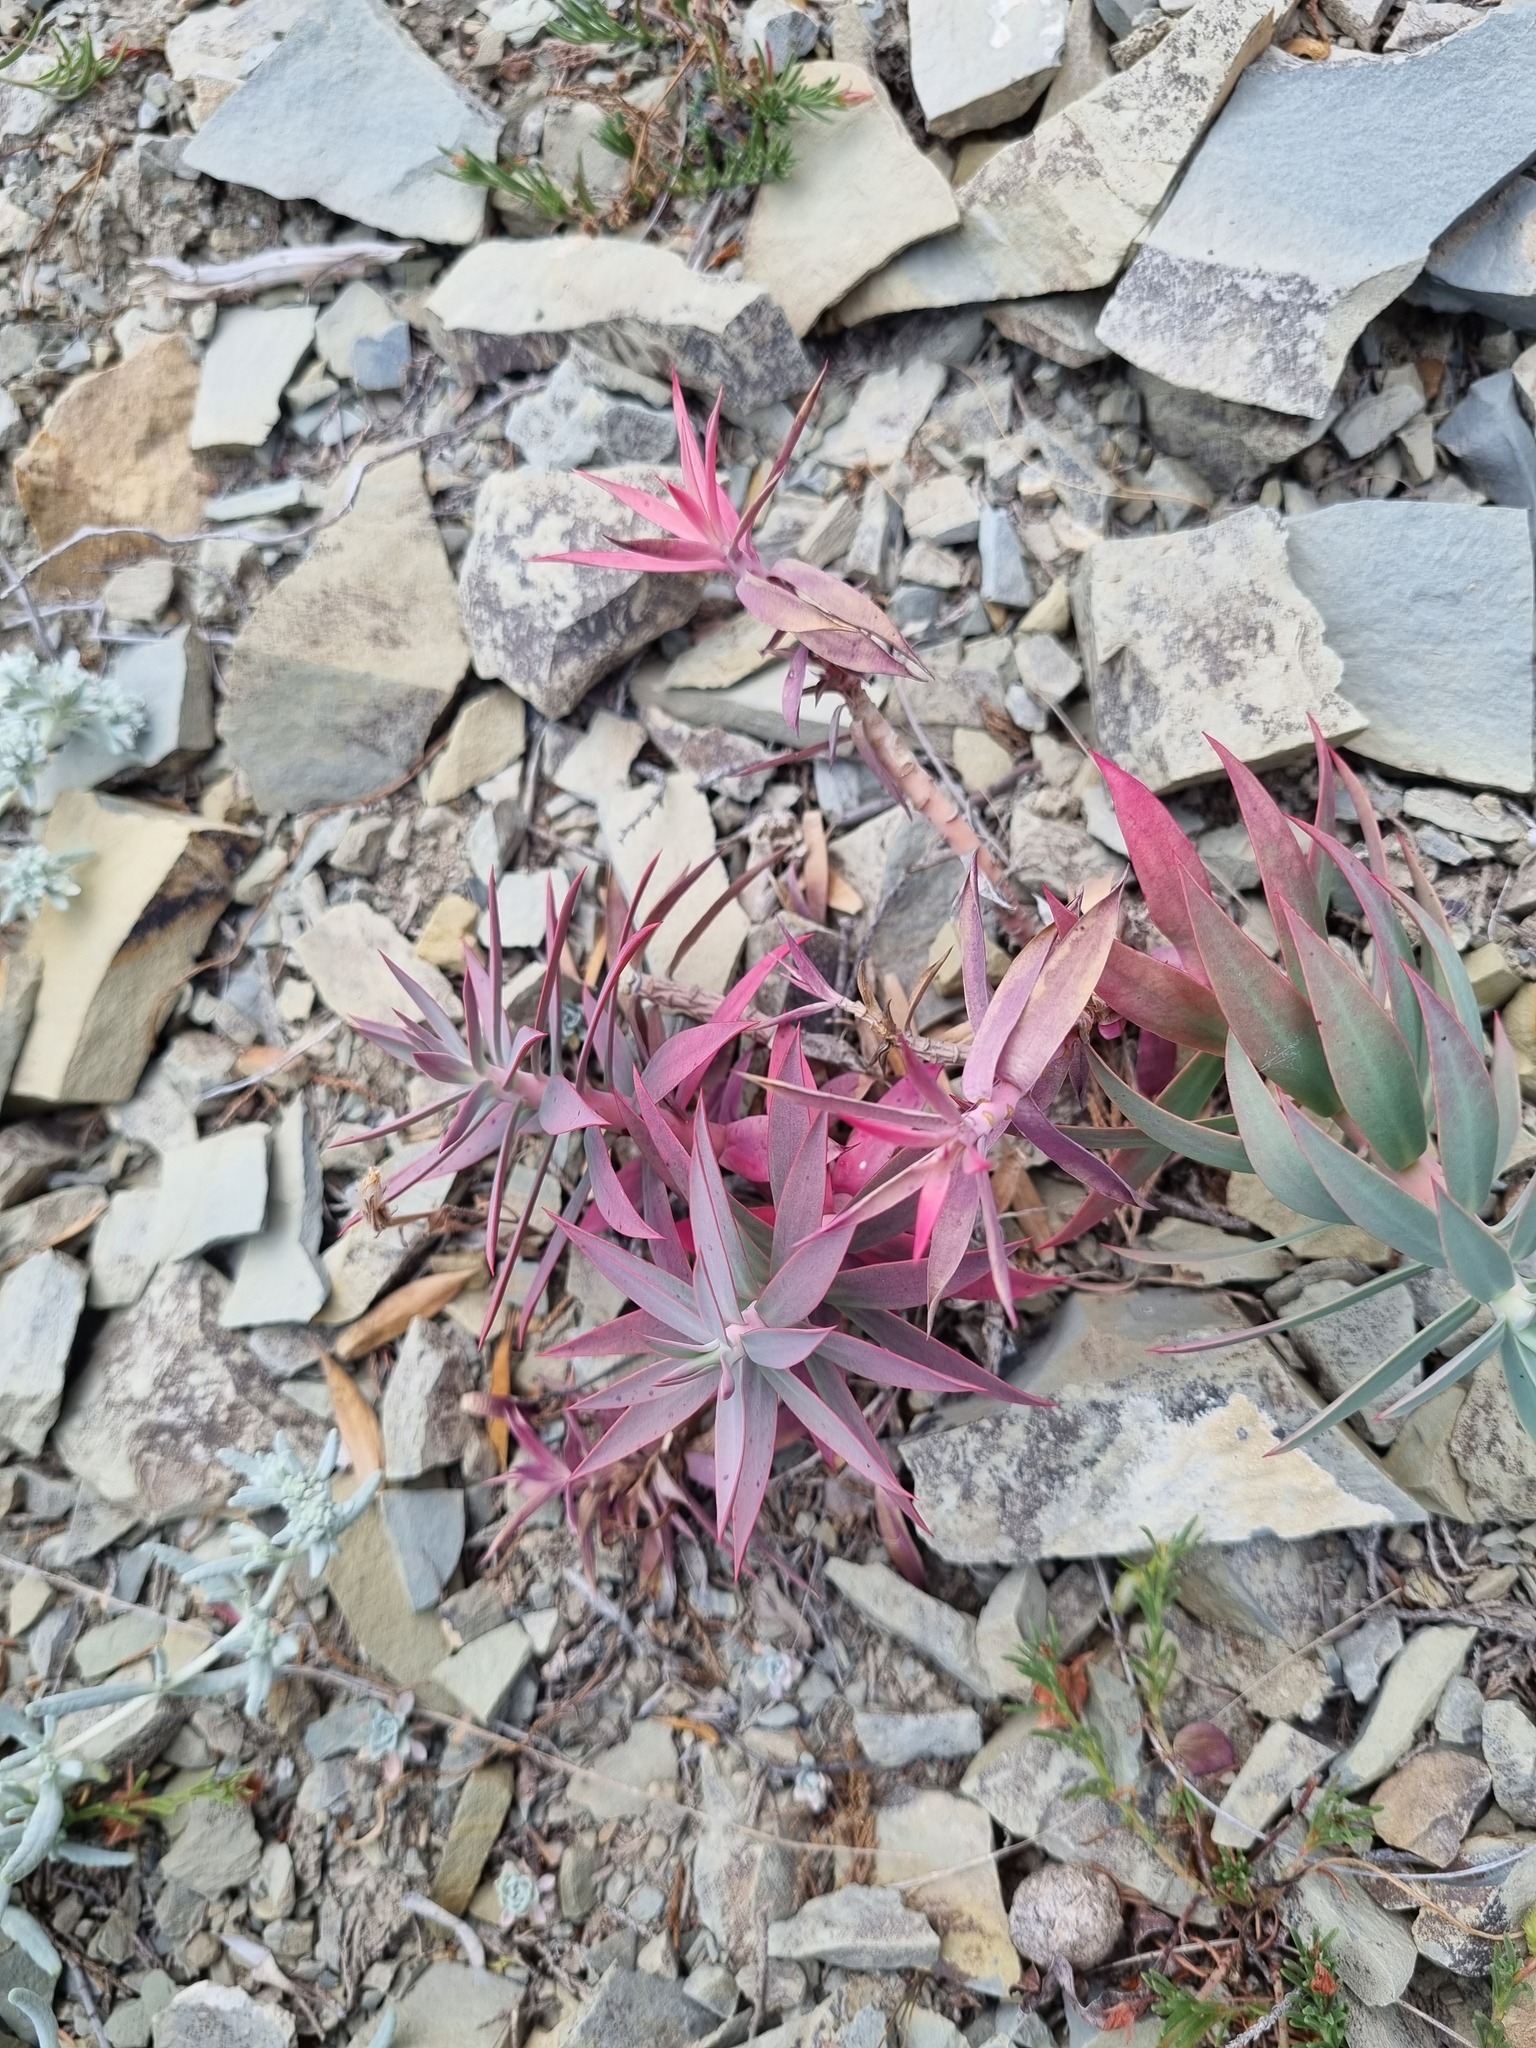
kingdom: Plantae
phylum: Tracheophyta
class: Magnoliopsida
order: Malpighiales
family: Euphorbiaceae
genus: Euphorbia
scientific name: Euphorbia rigida
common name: Upright myrtle spurge
